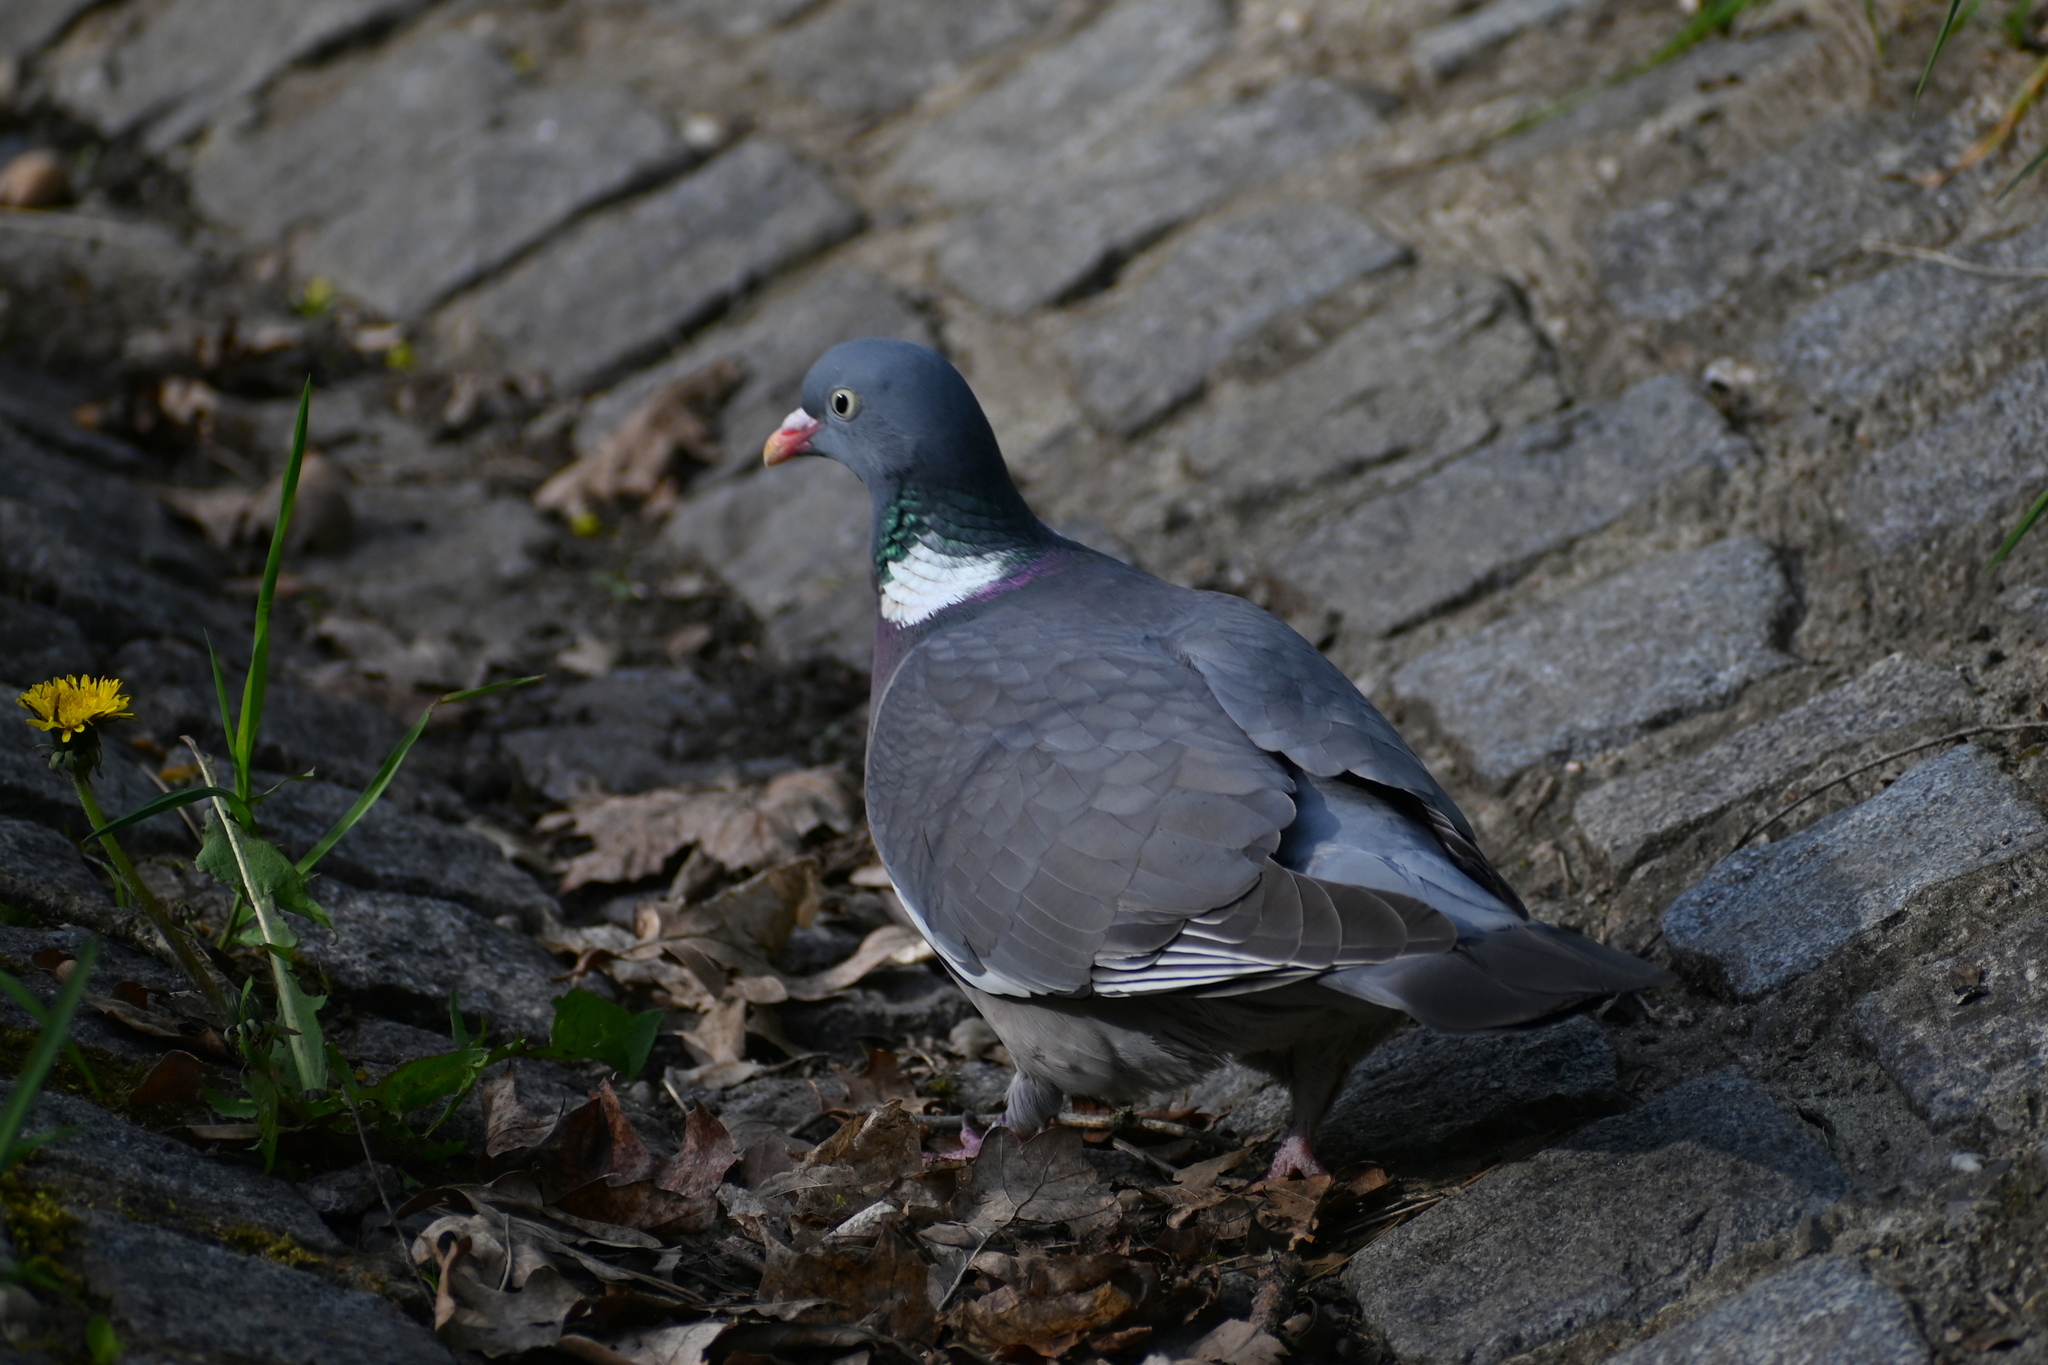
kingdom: Animalia
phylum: Chordata
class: Aves
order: Columbiformes
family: Columbidae
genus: Columba
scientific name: Columba palumbus
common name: Common wood pigeon
